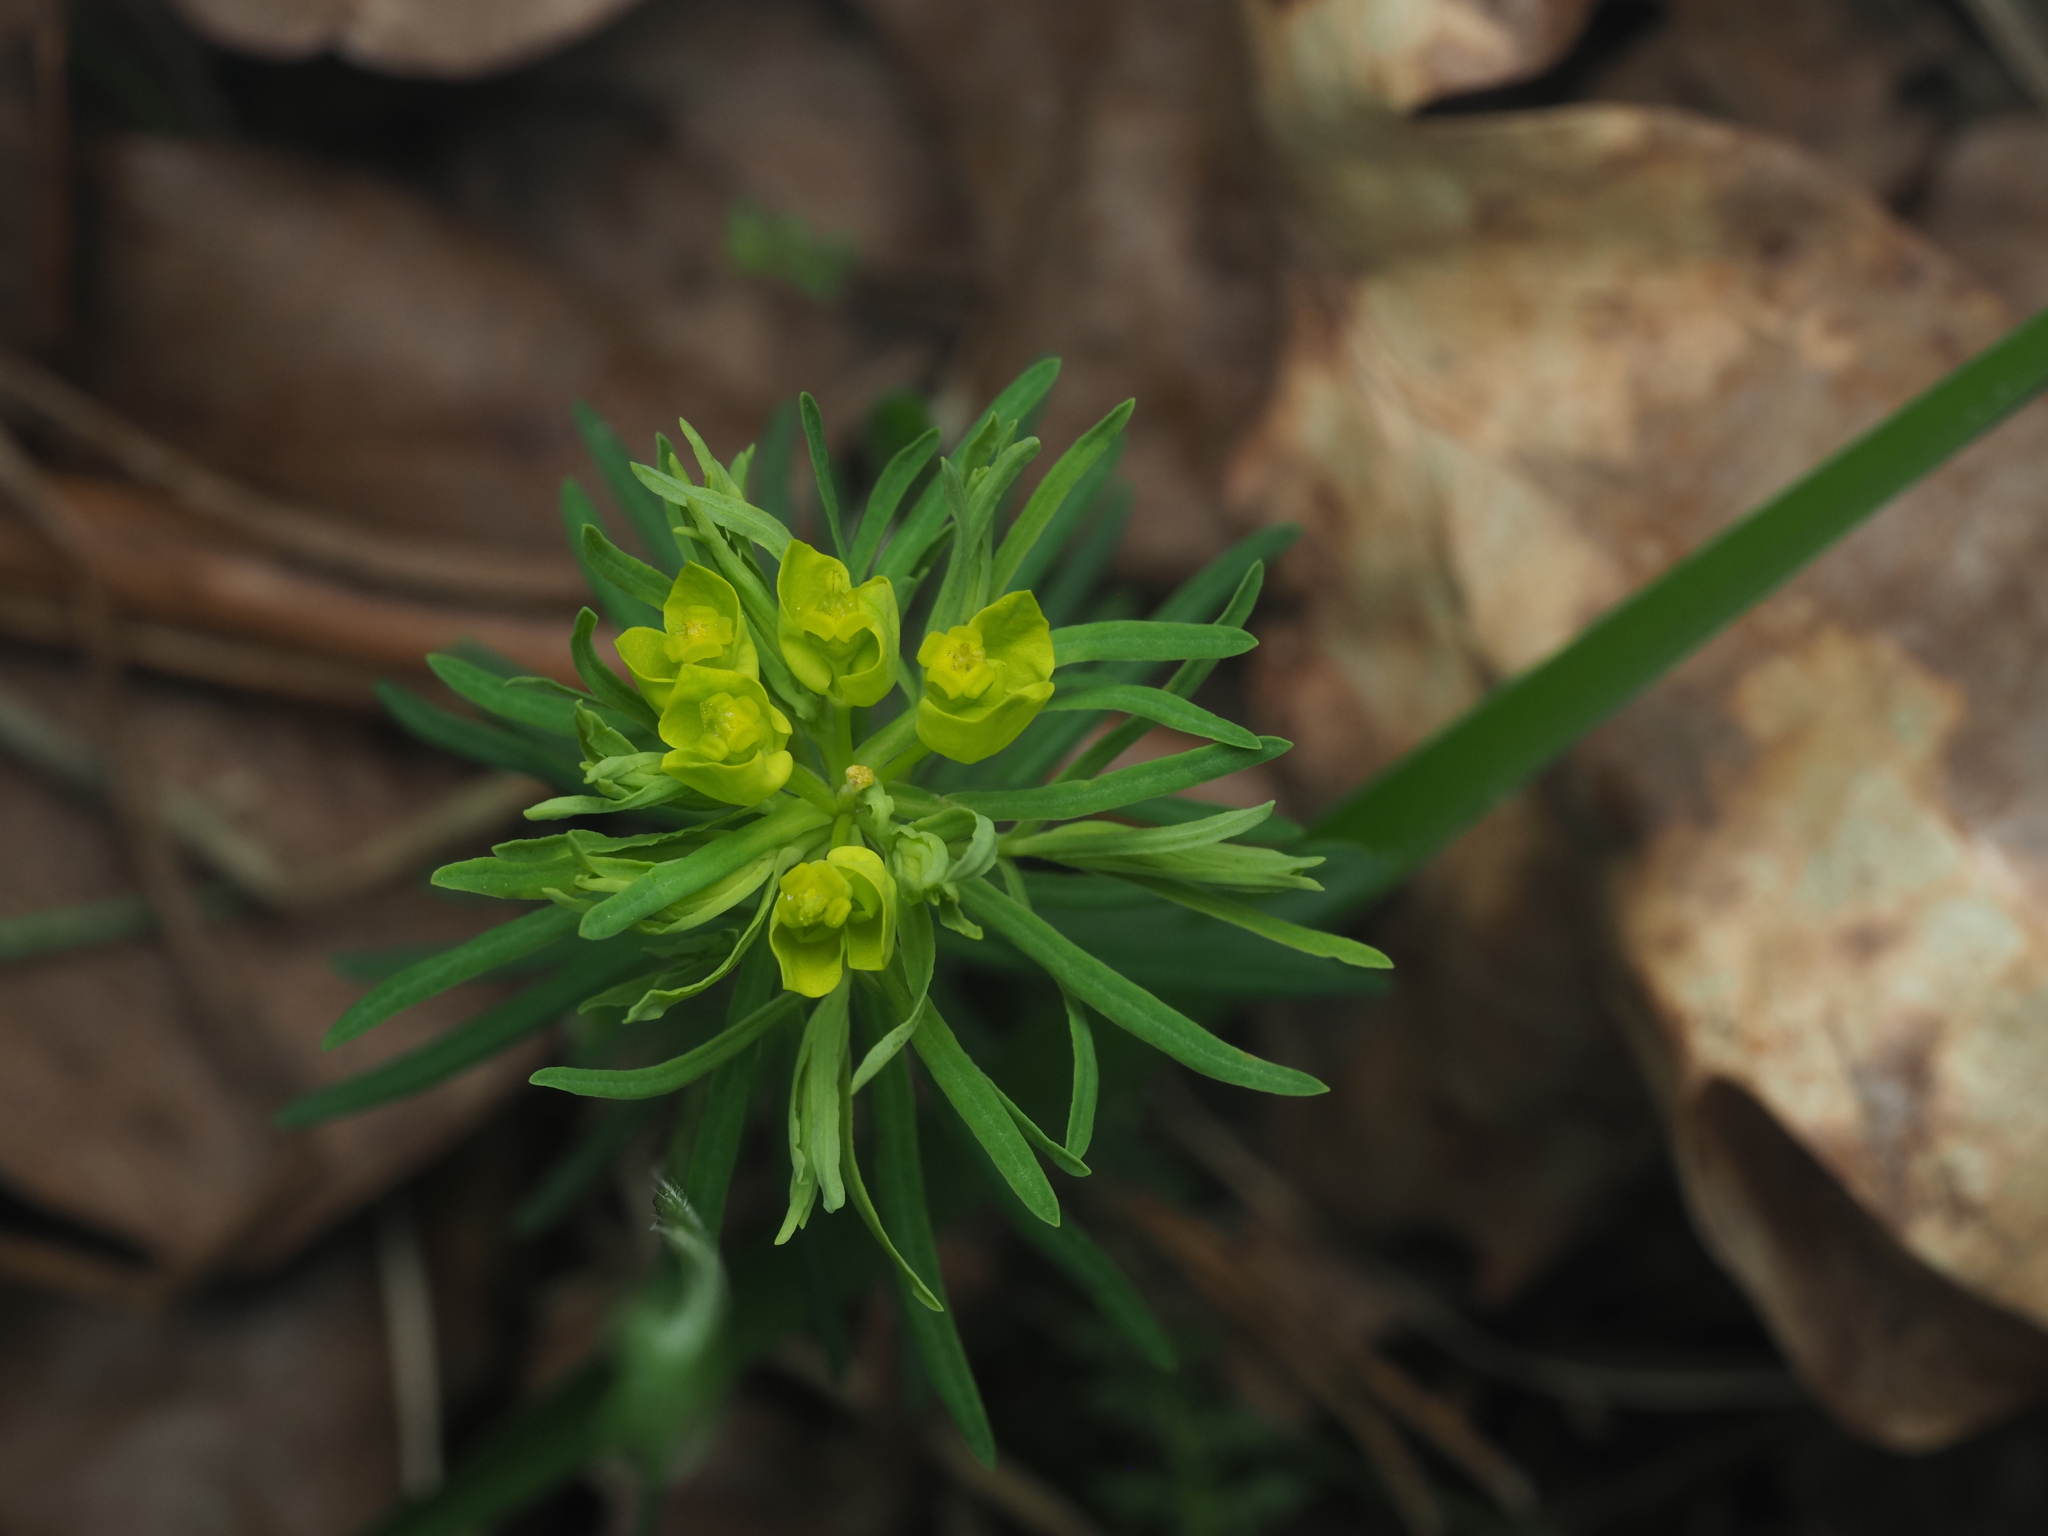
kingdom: Plantae
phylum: Tracheophyta
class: Magnoliopsida
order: Malpighiales
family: Euphorbiaceae
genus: Euphorbia
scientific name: Euphorbia cyparissias
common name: Cypress spurge
